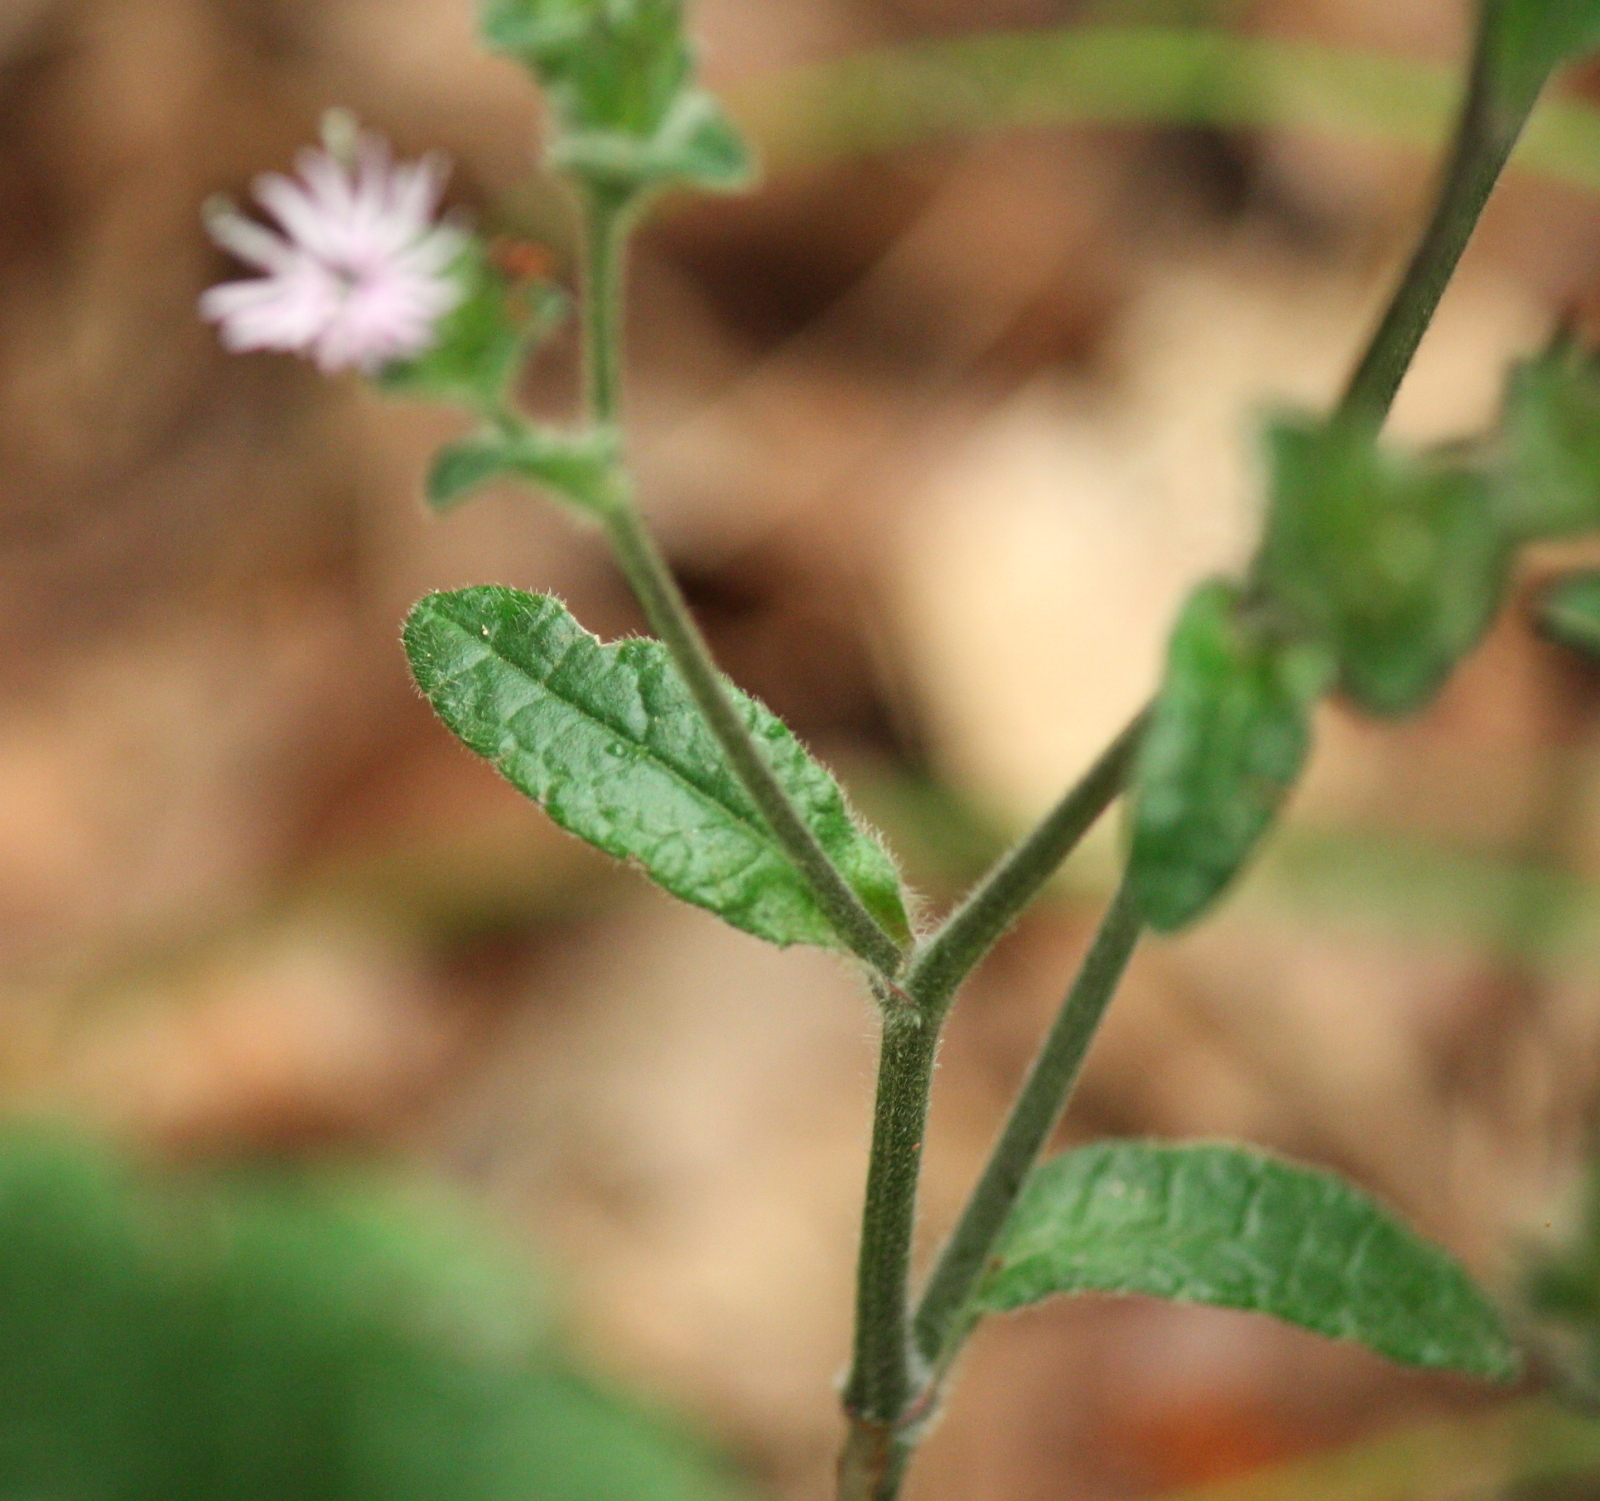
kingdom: Plantae
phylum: Tracheophyta
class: Magnoliopsida
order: Asterales
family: Asteraceae
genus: Elephantopus
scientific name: Elephantopus carolinianus
